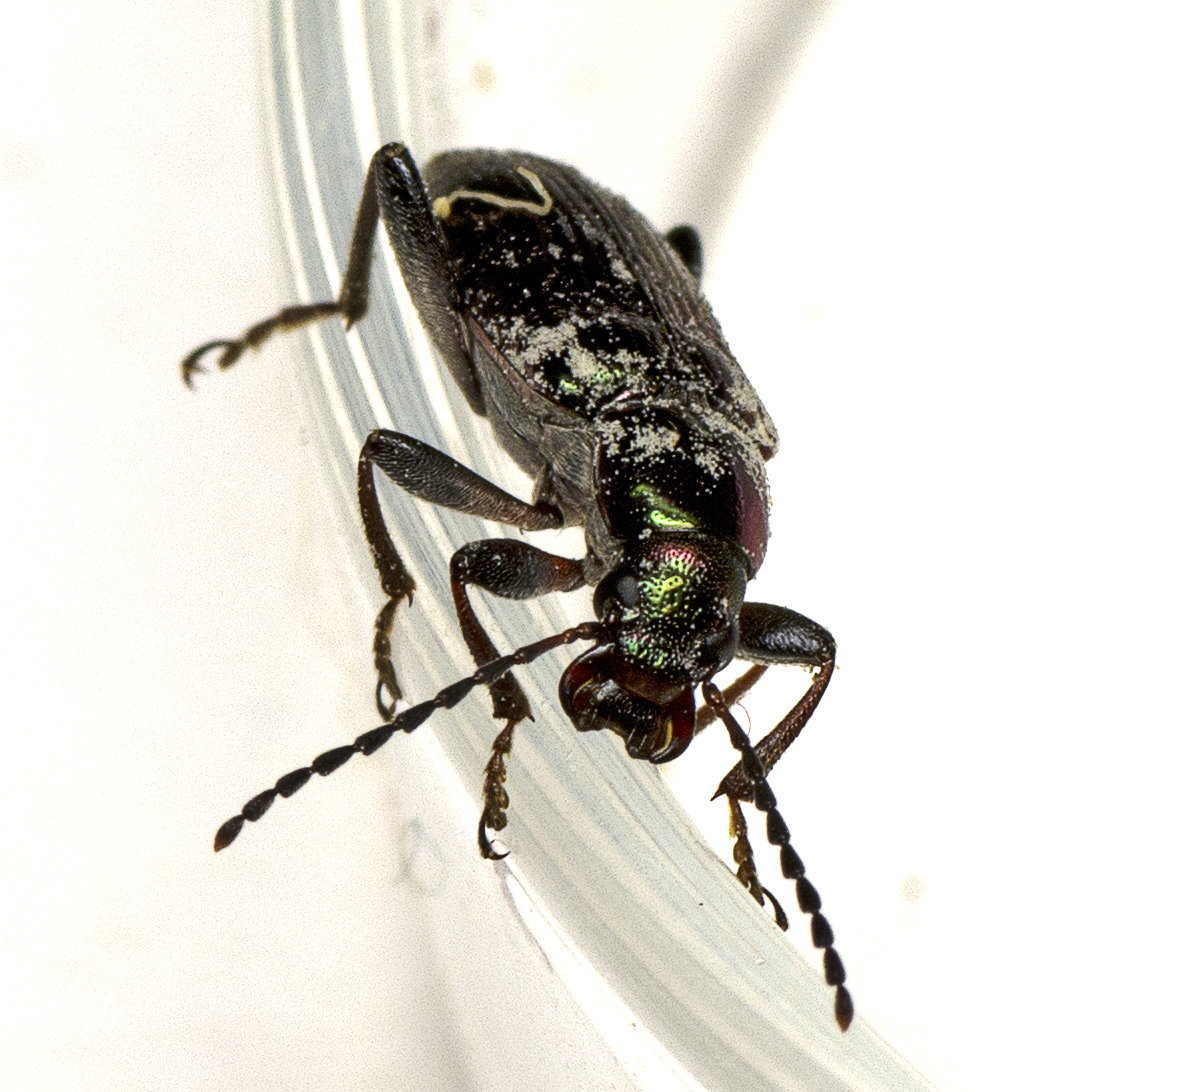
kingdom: Animalia
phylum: Arthropoda
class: Insecta
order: Coleoptera
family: Tenebrionidae
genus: Lepturidea
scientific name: Lepturidea
